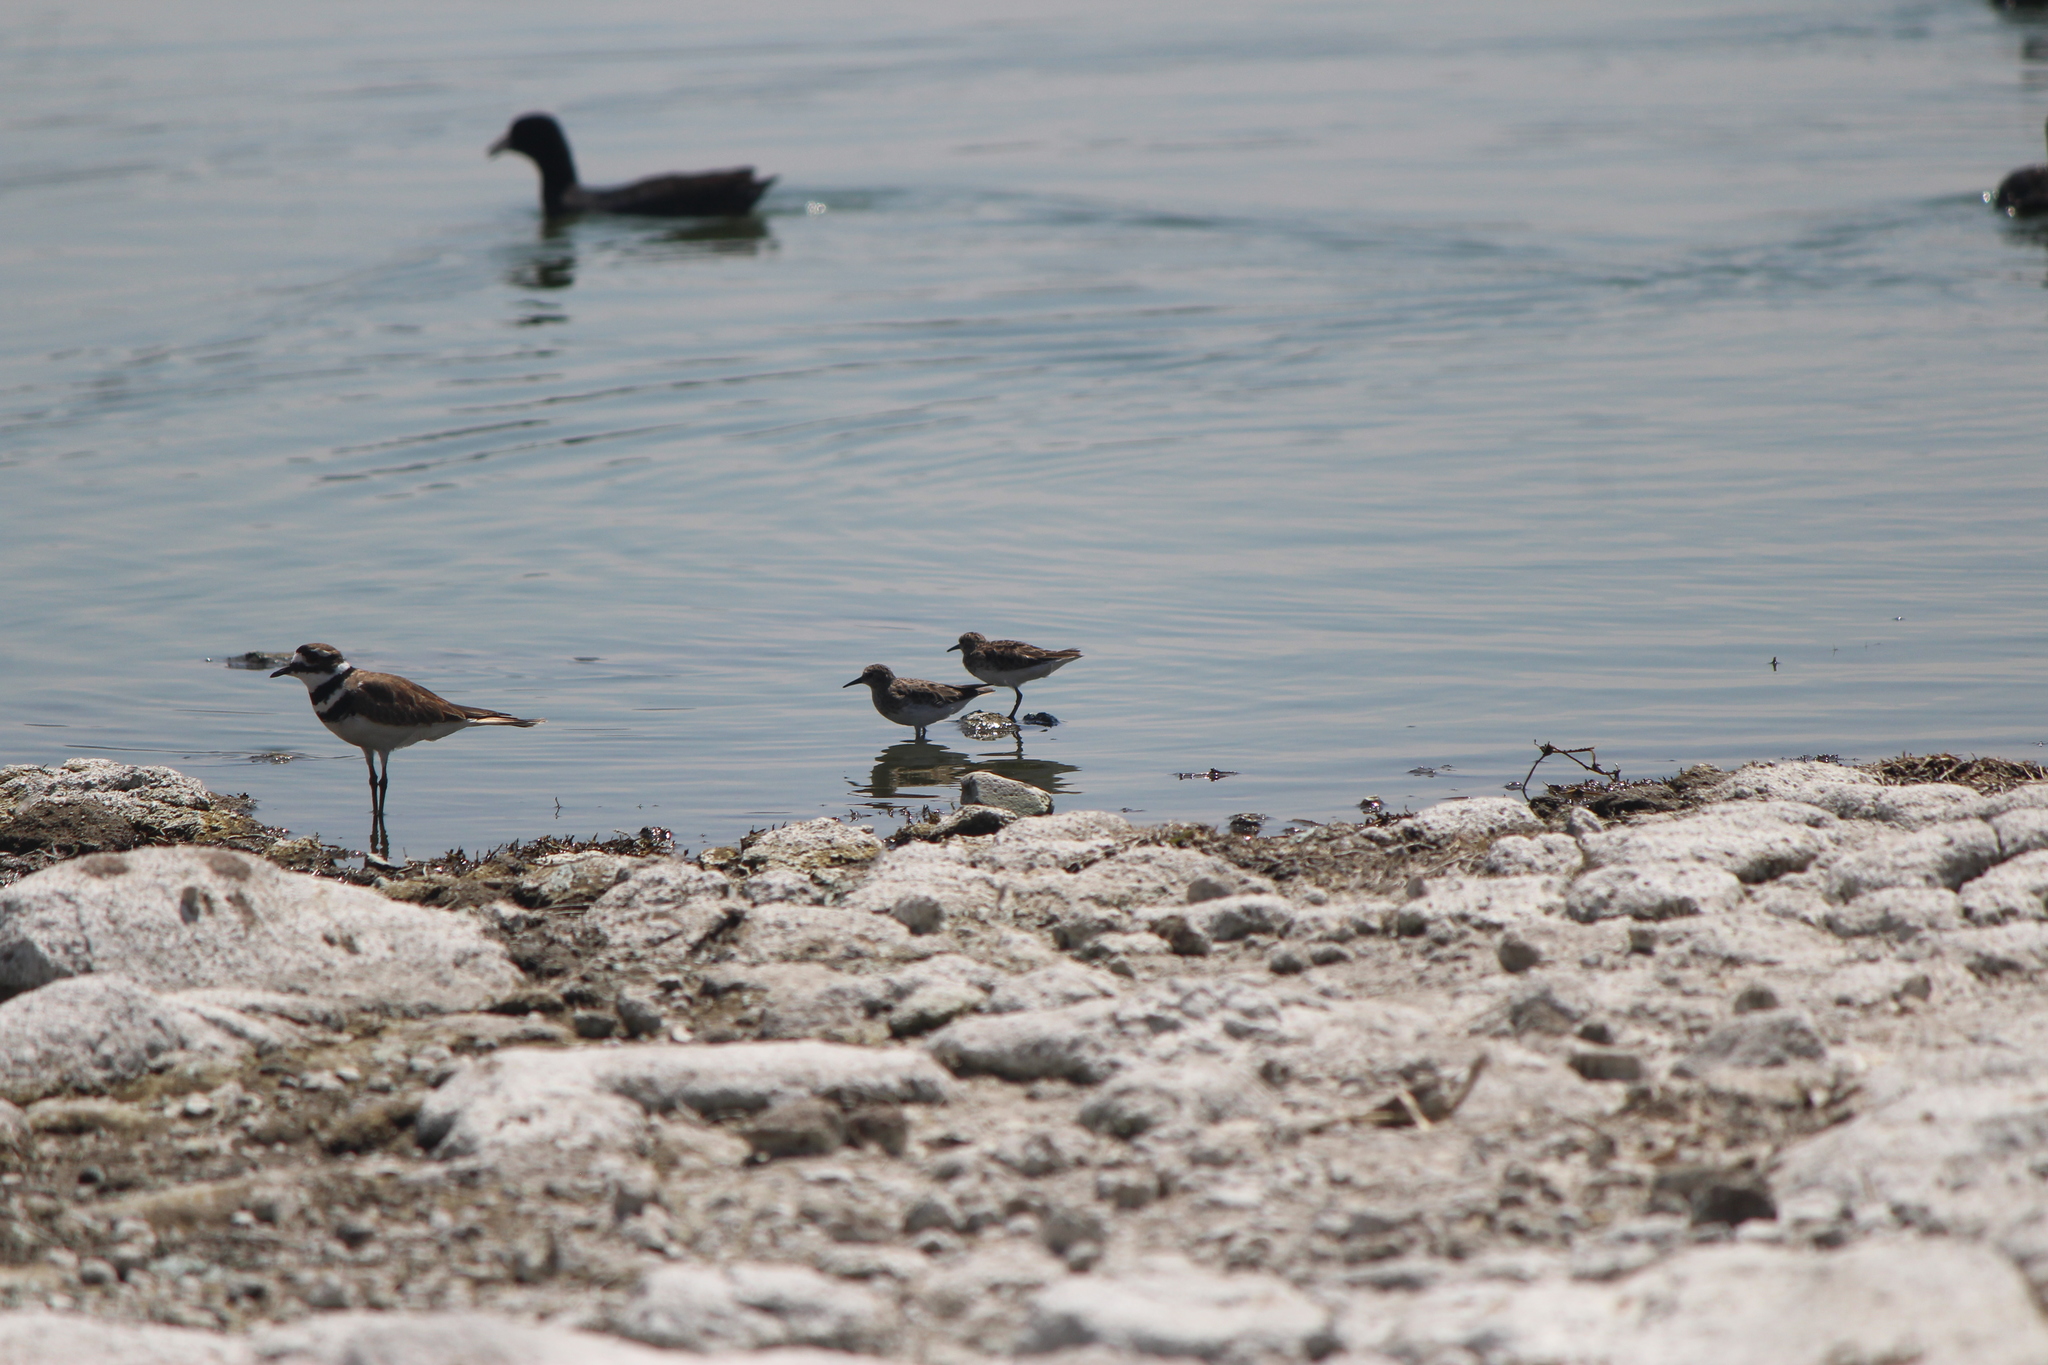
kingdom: Animalia
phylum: Chordata
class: Aves
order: Charadriiformes
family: Scolopacidae
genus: Calidris
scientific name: Calidris minutilla
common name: Least sandpiper
